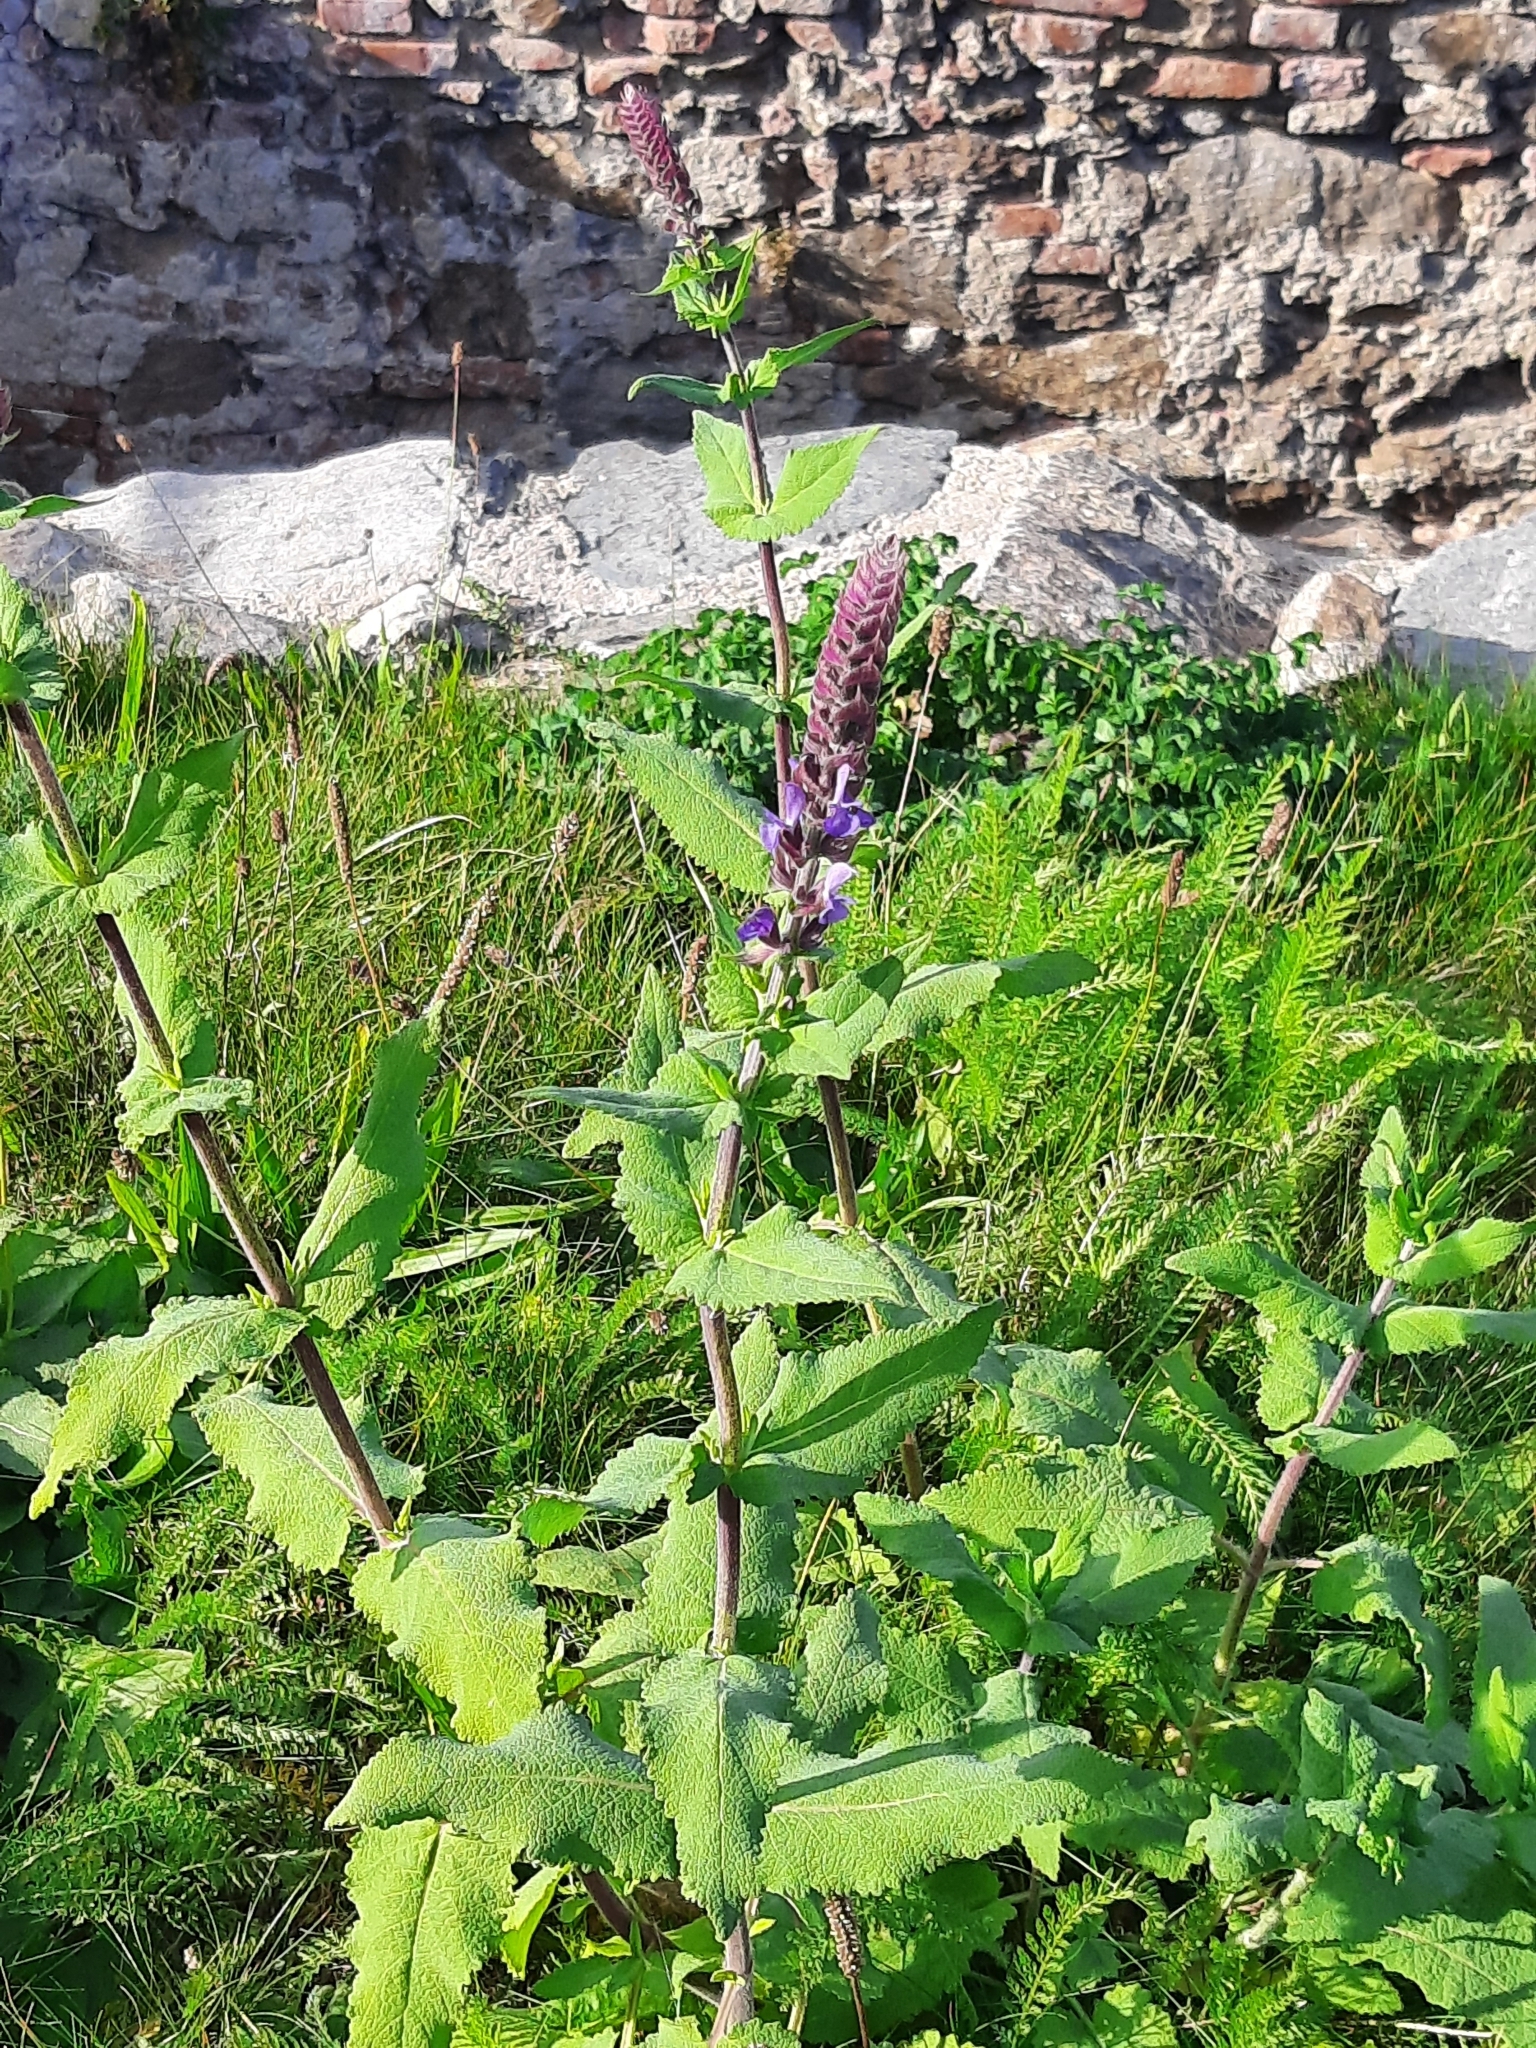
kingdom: Plantae
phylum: Tracheophyta
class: Magnoliopsida
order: Lamiales
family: Lamiaceae
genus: Salvia
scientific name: Salvia nemorosa
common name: Balkan clary
